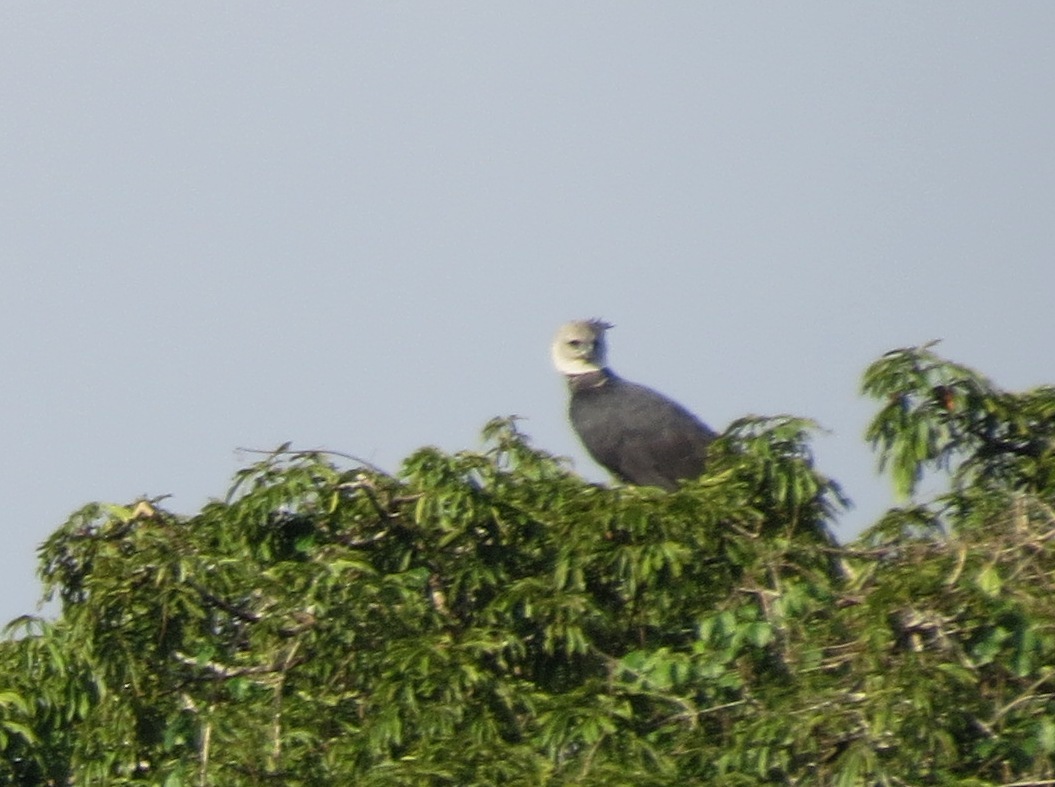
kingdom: Animalia
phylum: Chordata
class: Aves
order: Accipitriformes
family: Accipitridae
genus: Harpia
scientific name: Harpia harpyja
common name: Harpy eagle
